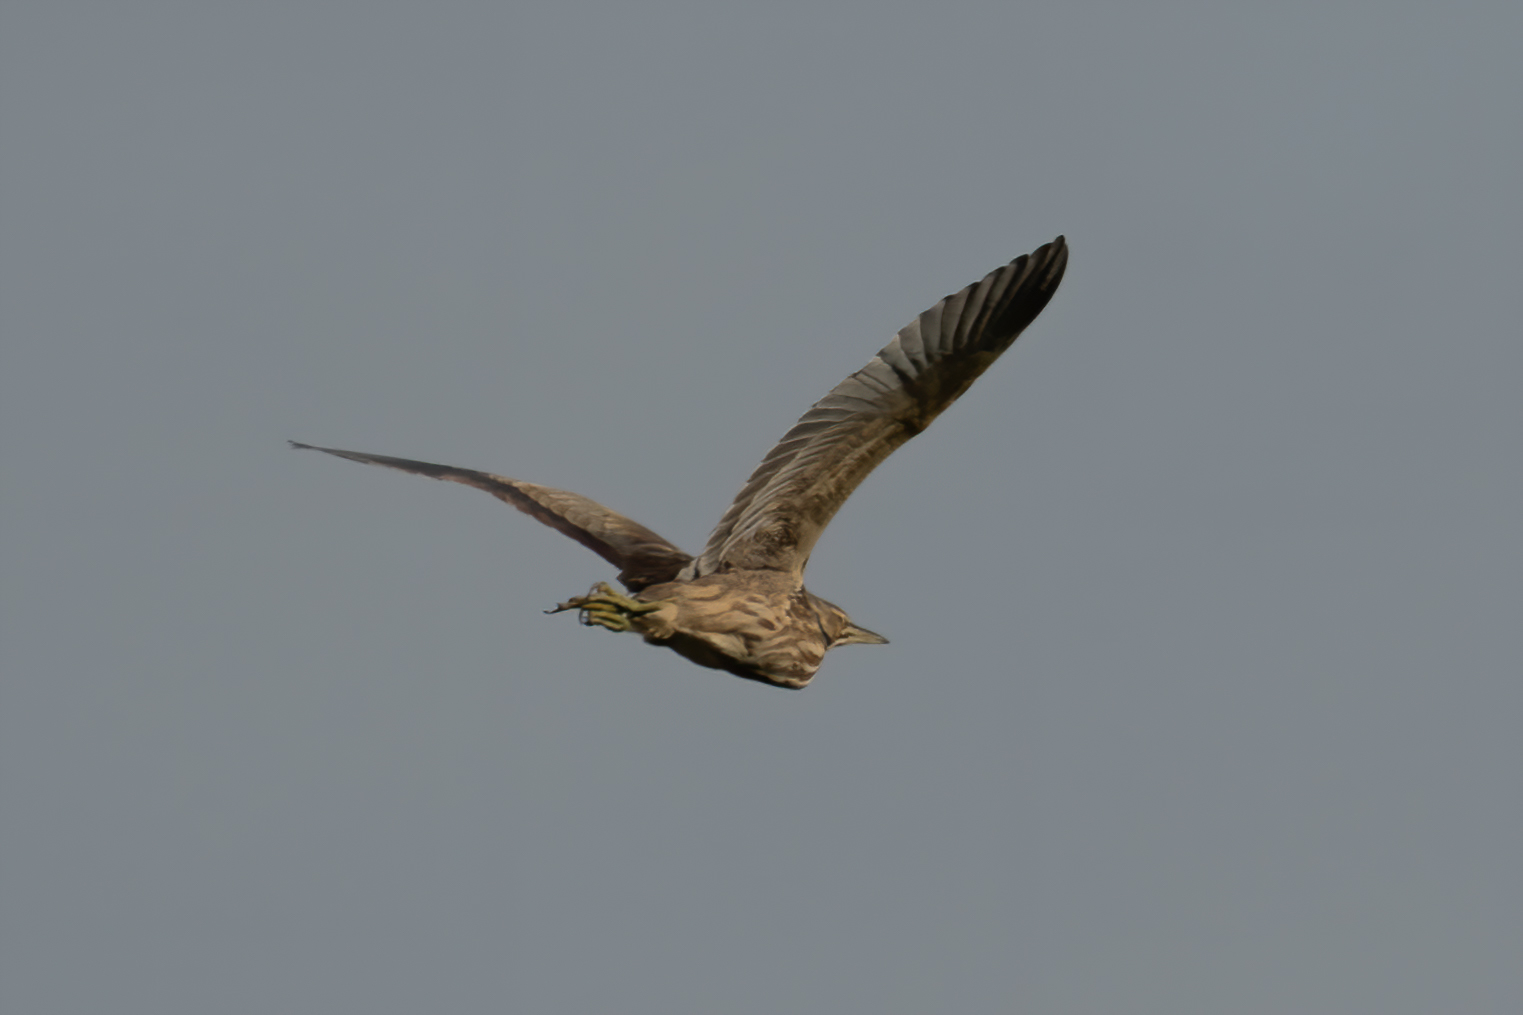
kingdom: Animalia
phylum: Chordata
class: Aves
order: Pelecaniformes
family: Ardeidae
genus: Nycticorax
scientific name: Nycticorax nycticorax
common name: Black-crowned night heron
